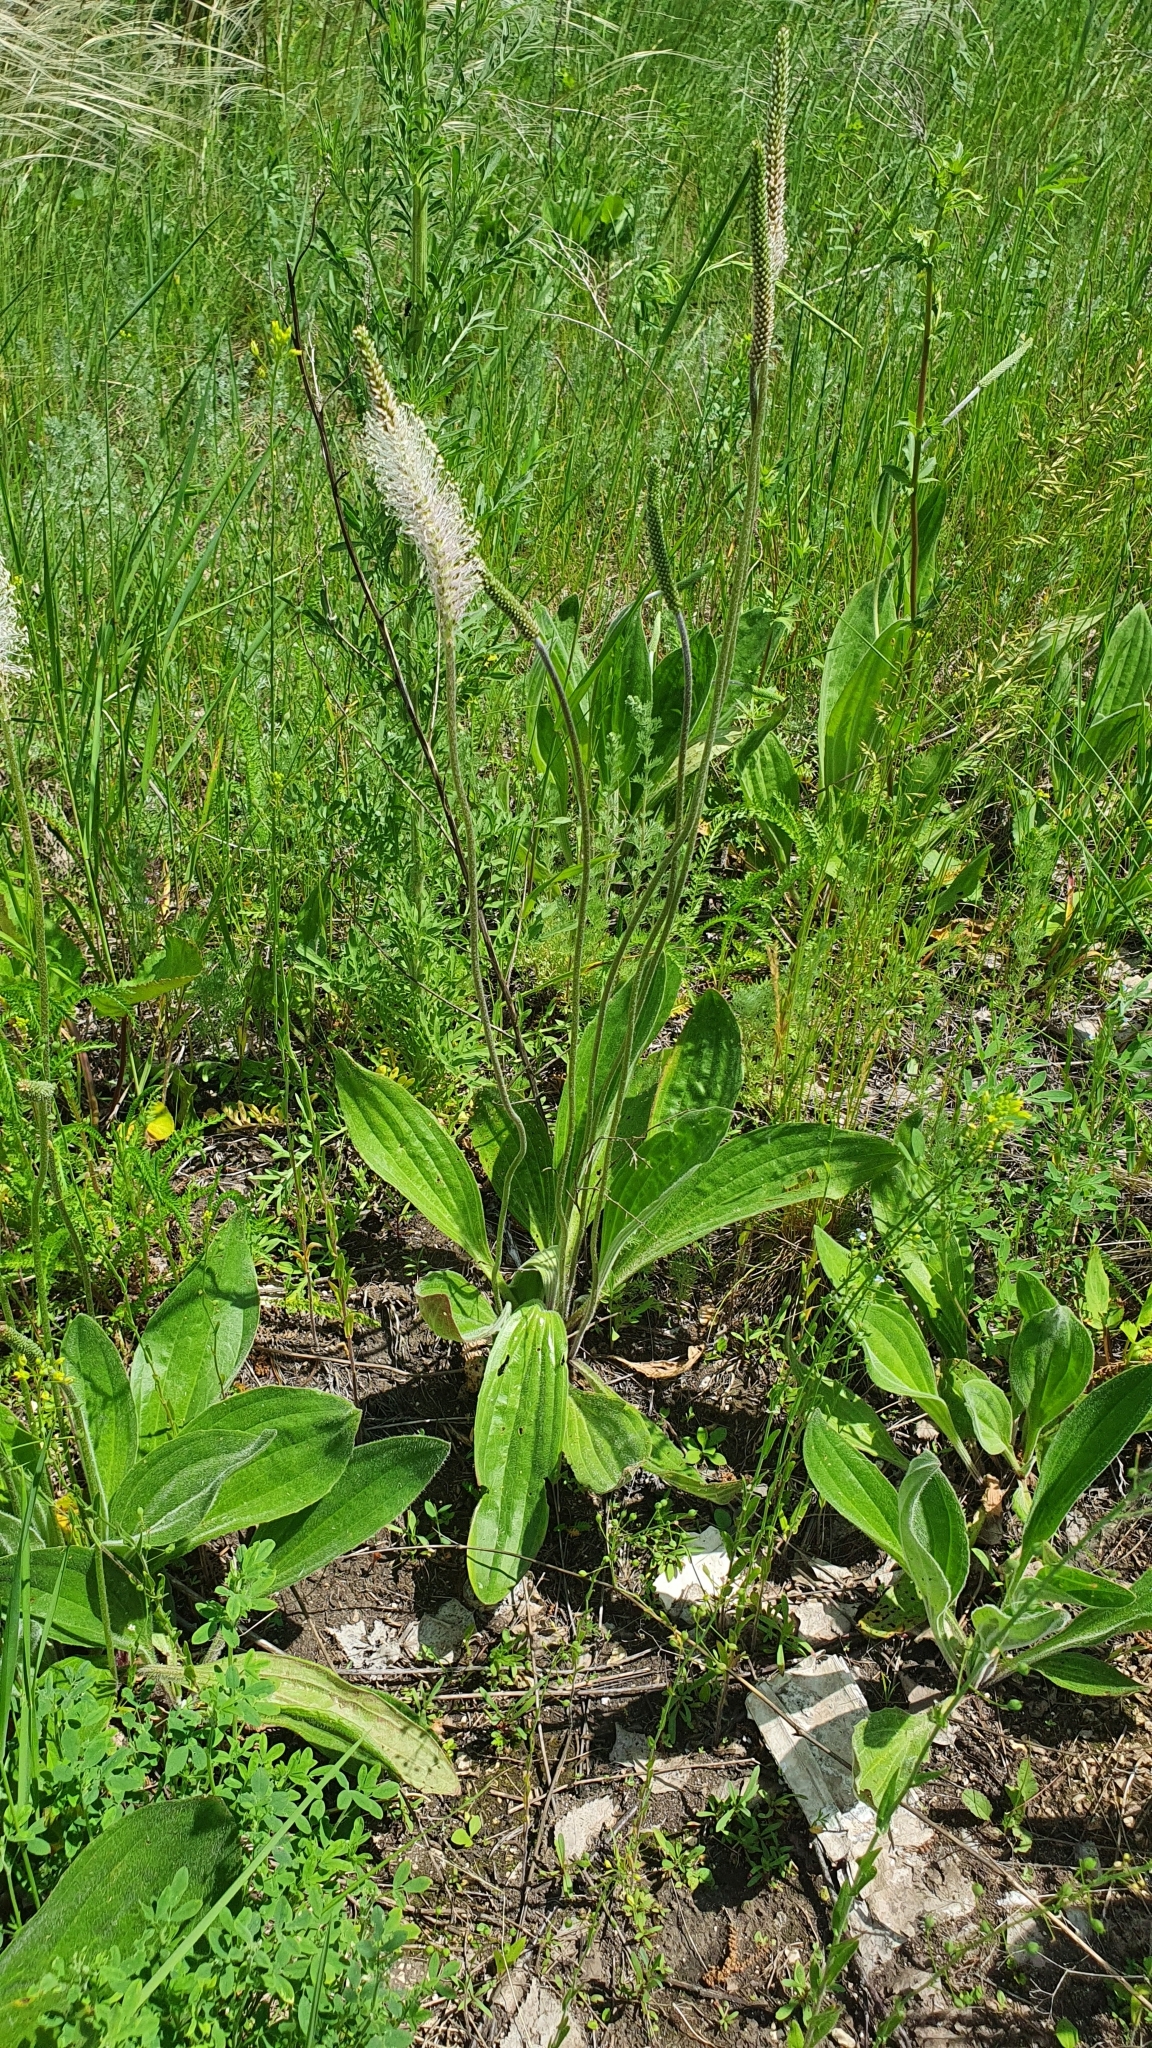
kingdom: Plantae
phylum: Tracheophyta
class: Magnoliopsida
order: Lamiales
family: Plantaginaceae
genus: Plantago
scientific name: Plantago urvillei
